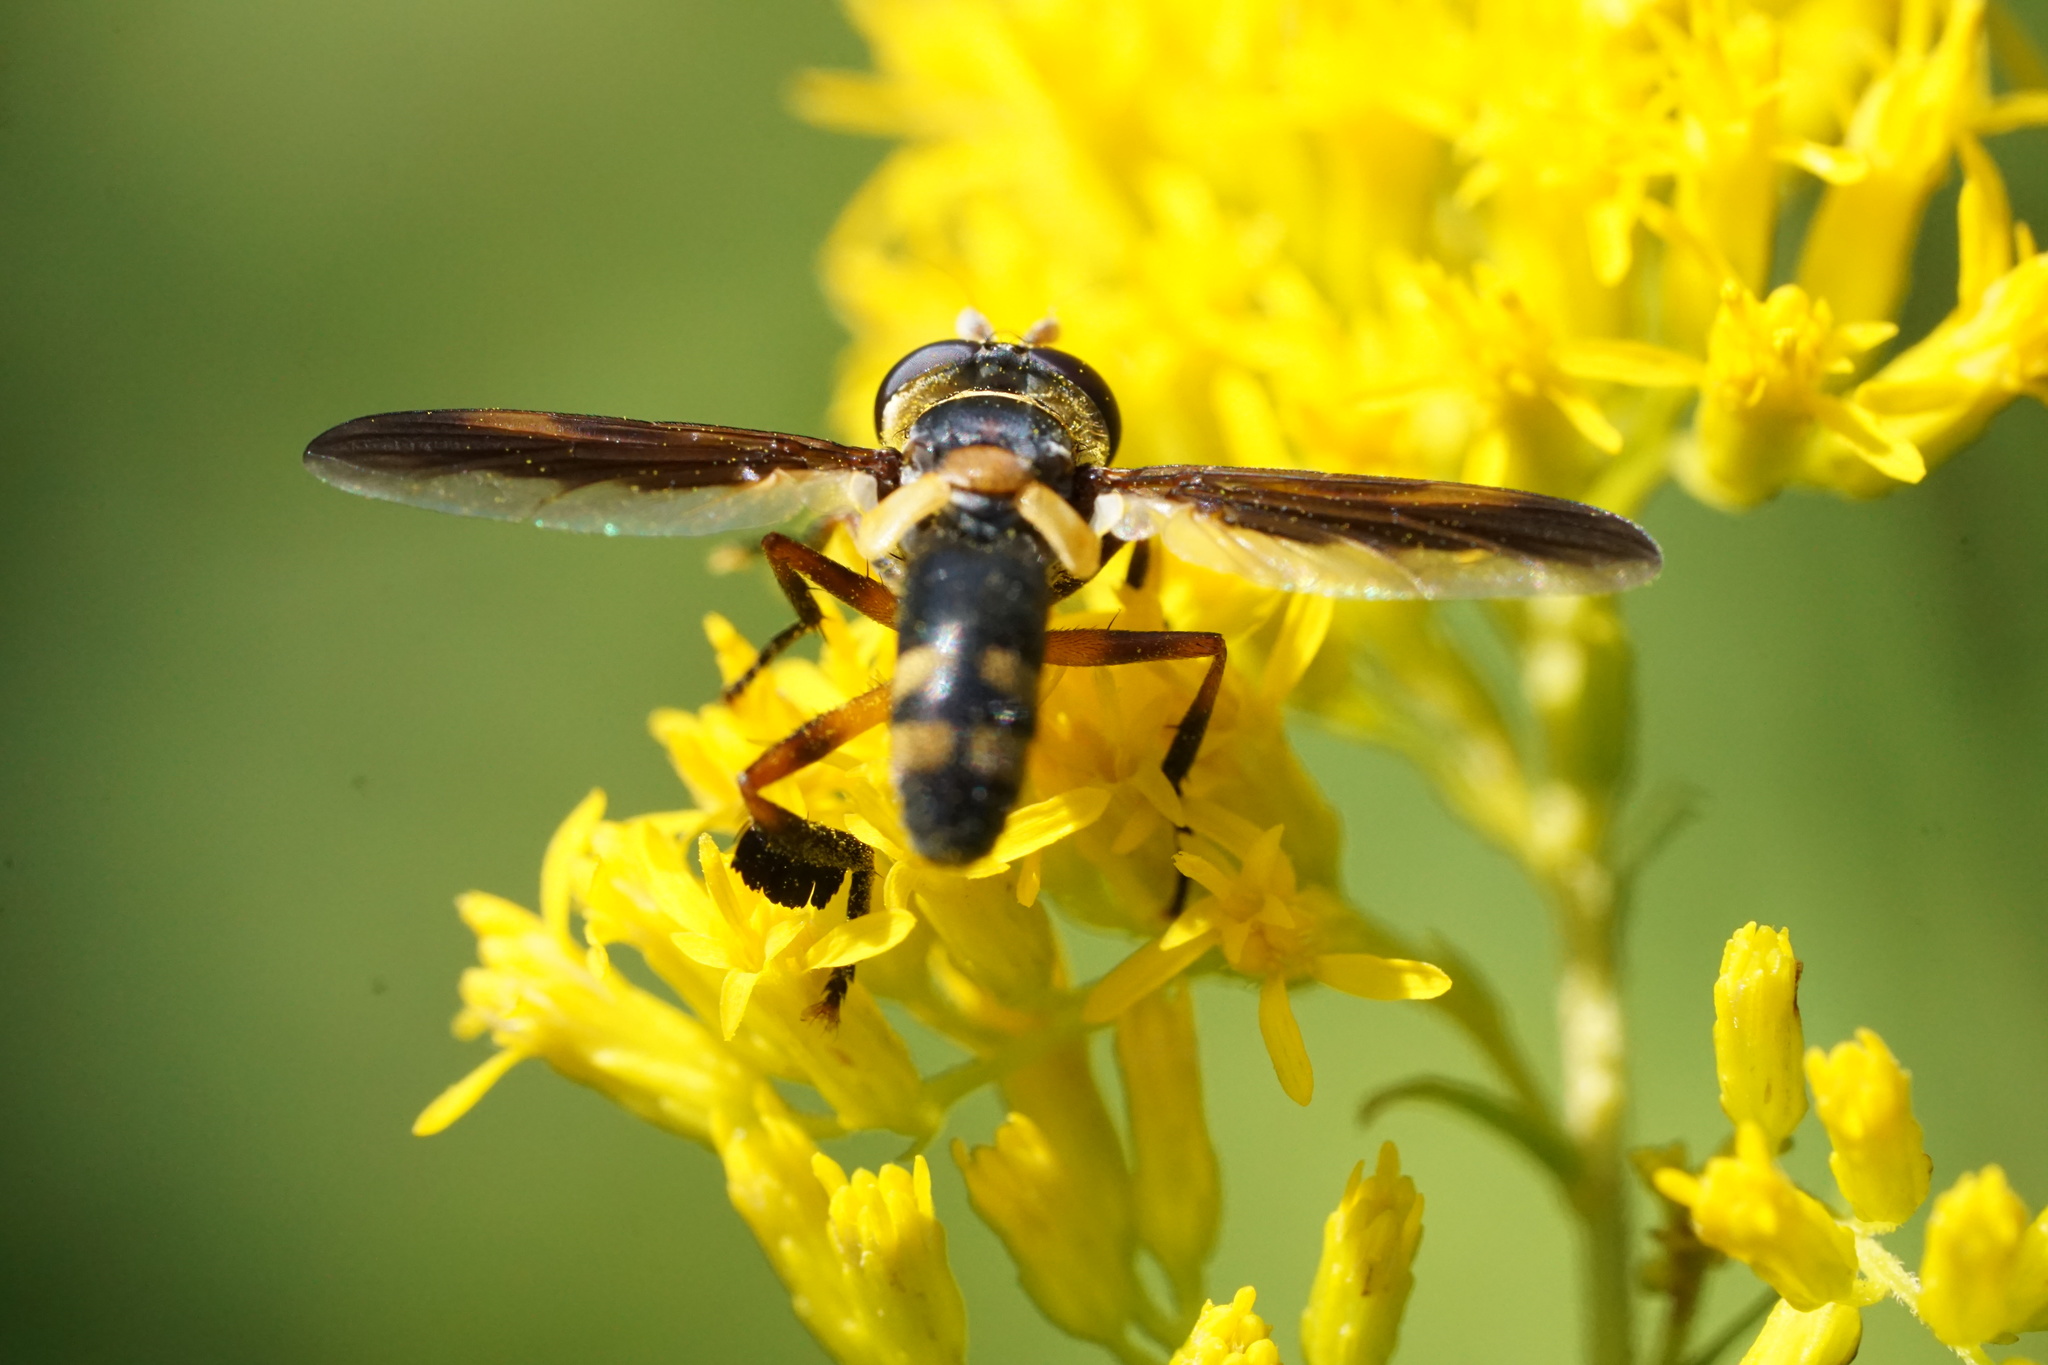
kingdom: Animalia
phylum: Arthropoda
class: Insecta
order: Diptera
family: Tachinidae
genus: Trichopoda
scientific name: Trichopoda plumipes
